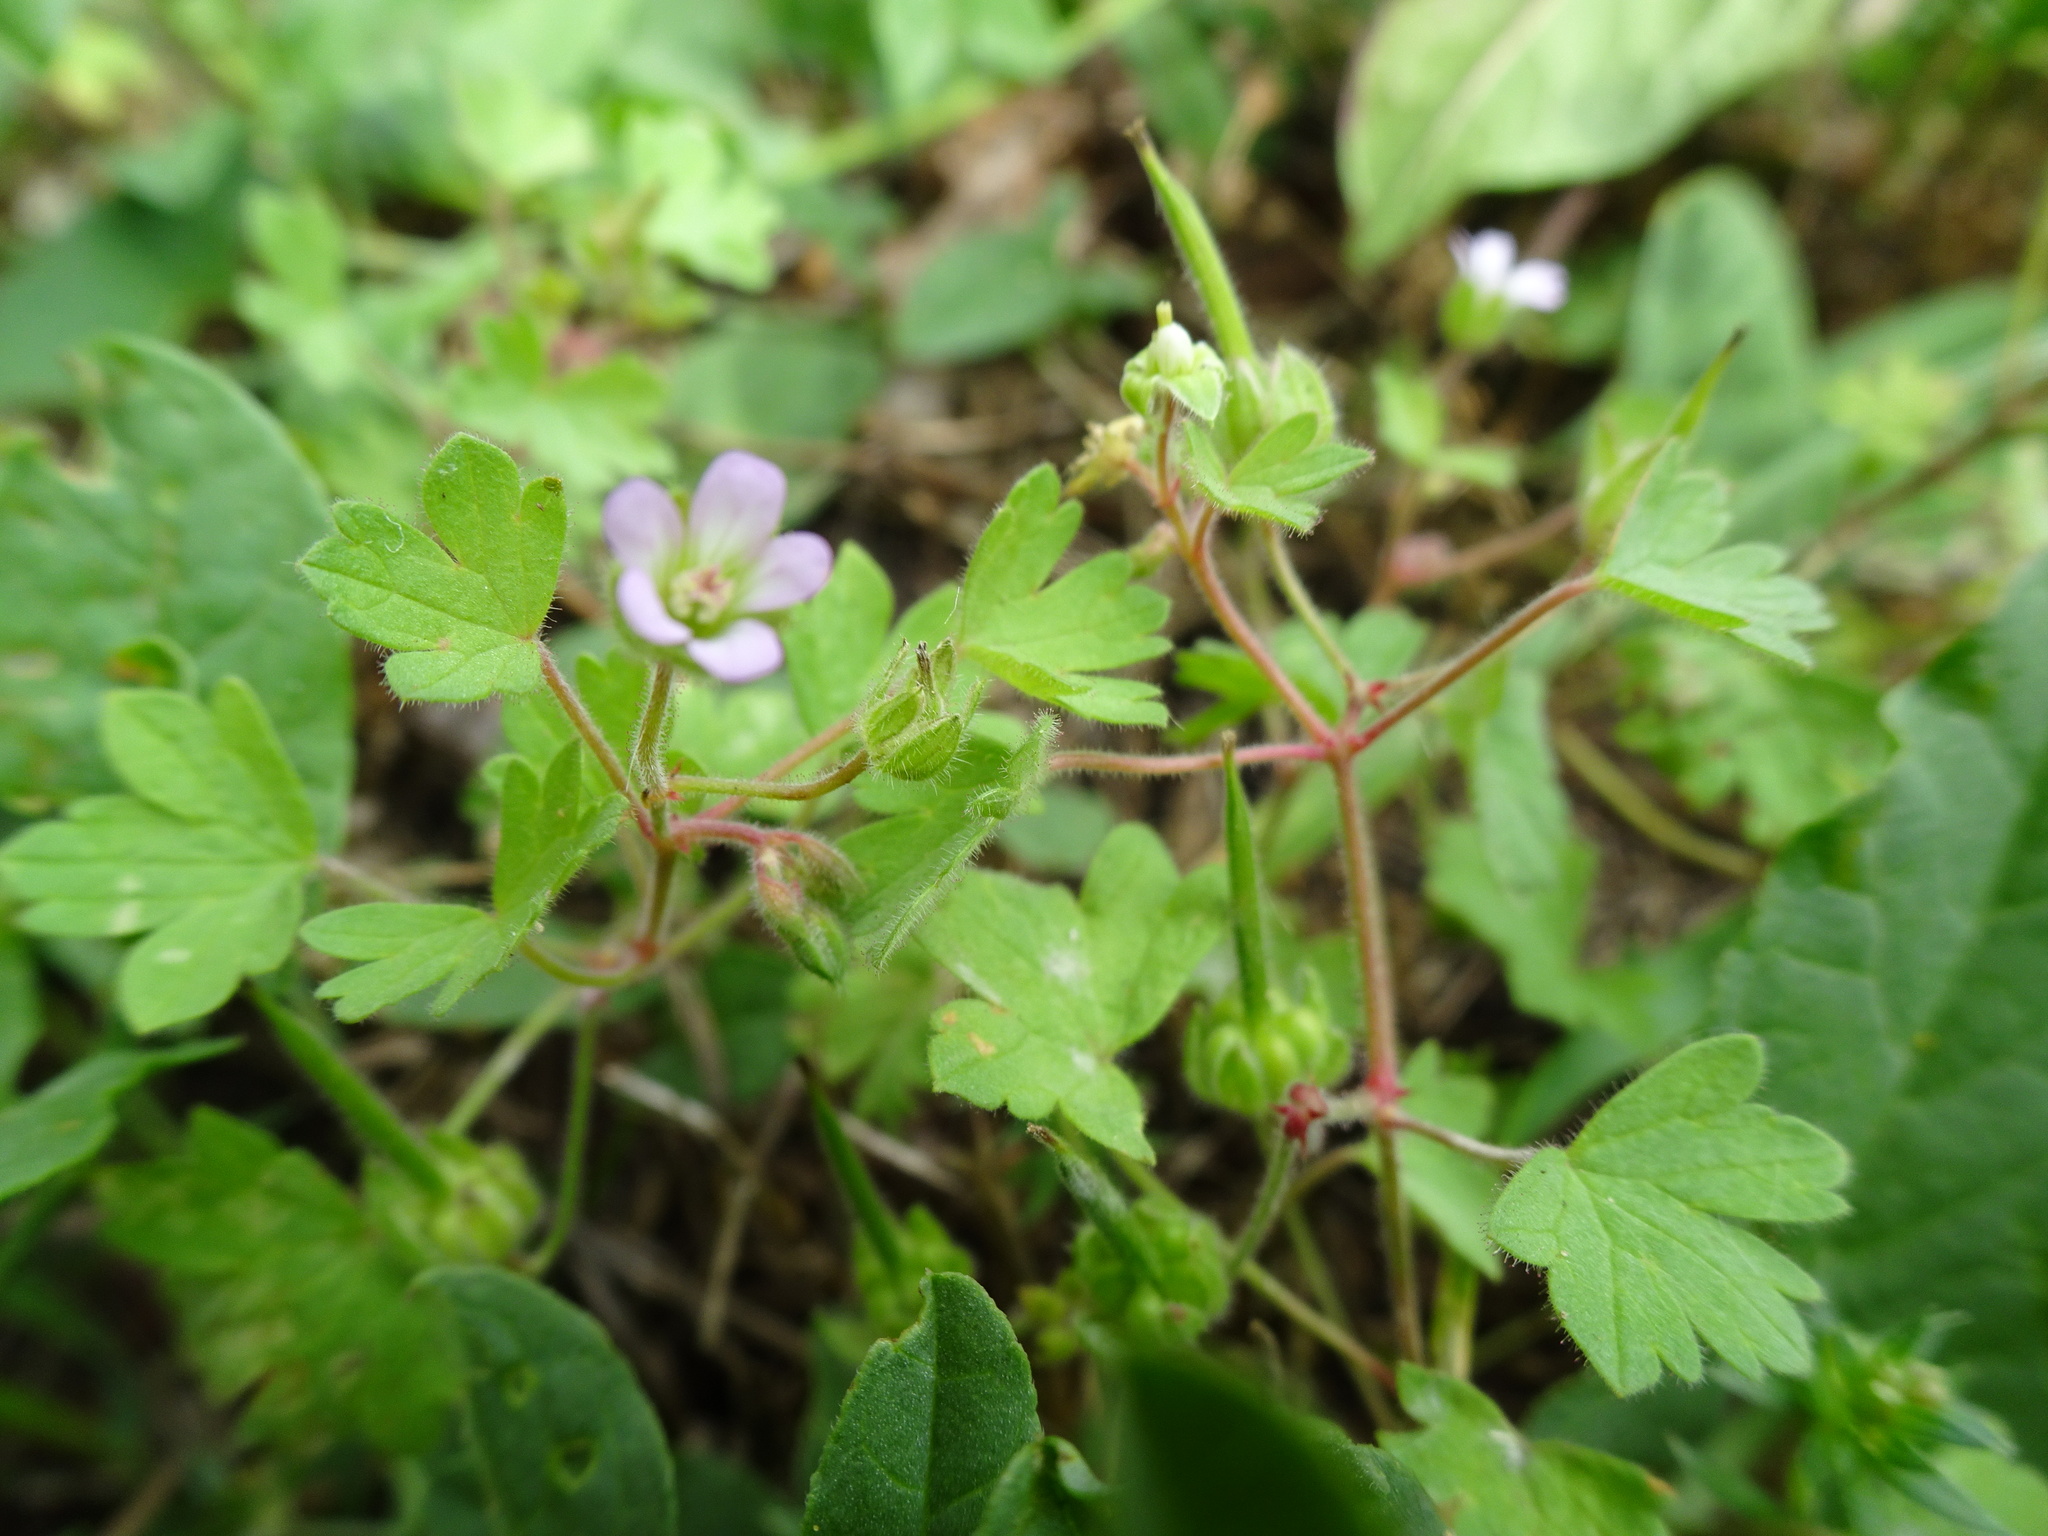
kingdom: Plantae
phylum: Tracheophyta
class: Magnoliopsida
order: Geraniales
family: Geraniaceae
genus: Geranium
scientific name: Geranium rotundifolium
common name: Round-leaved crane's-bill
